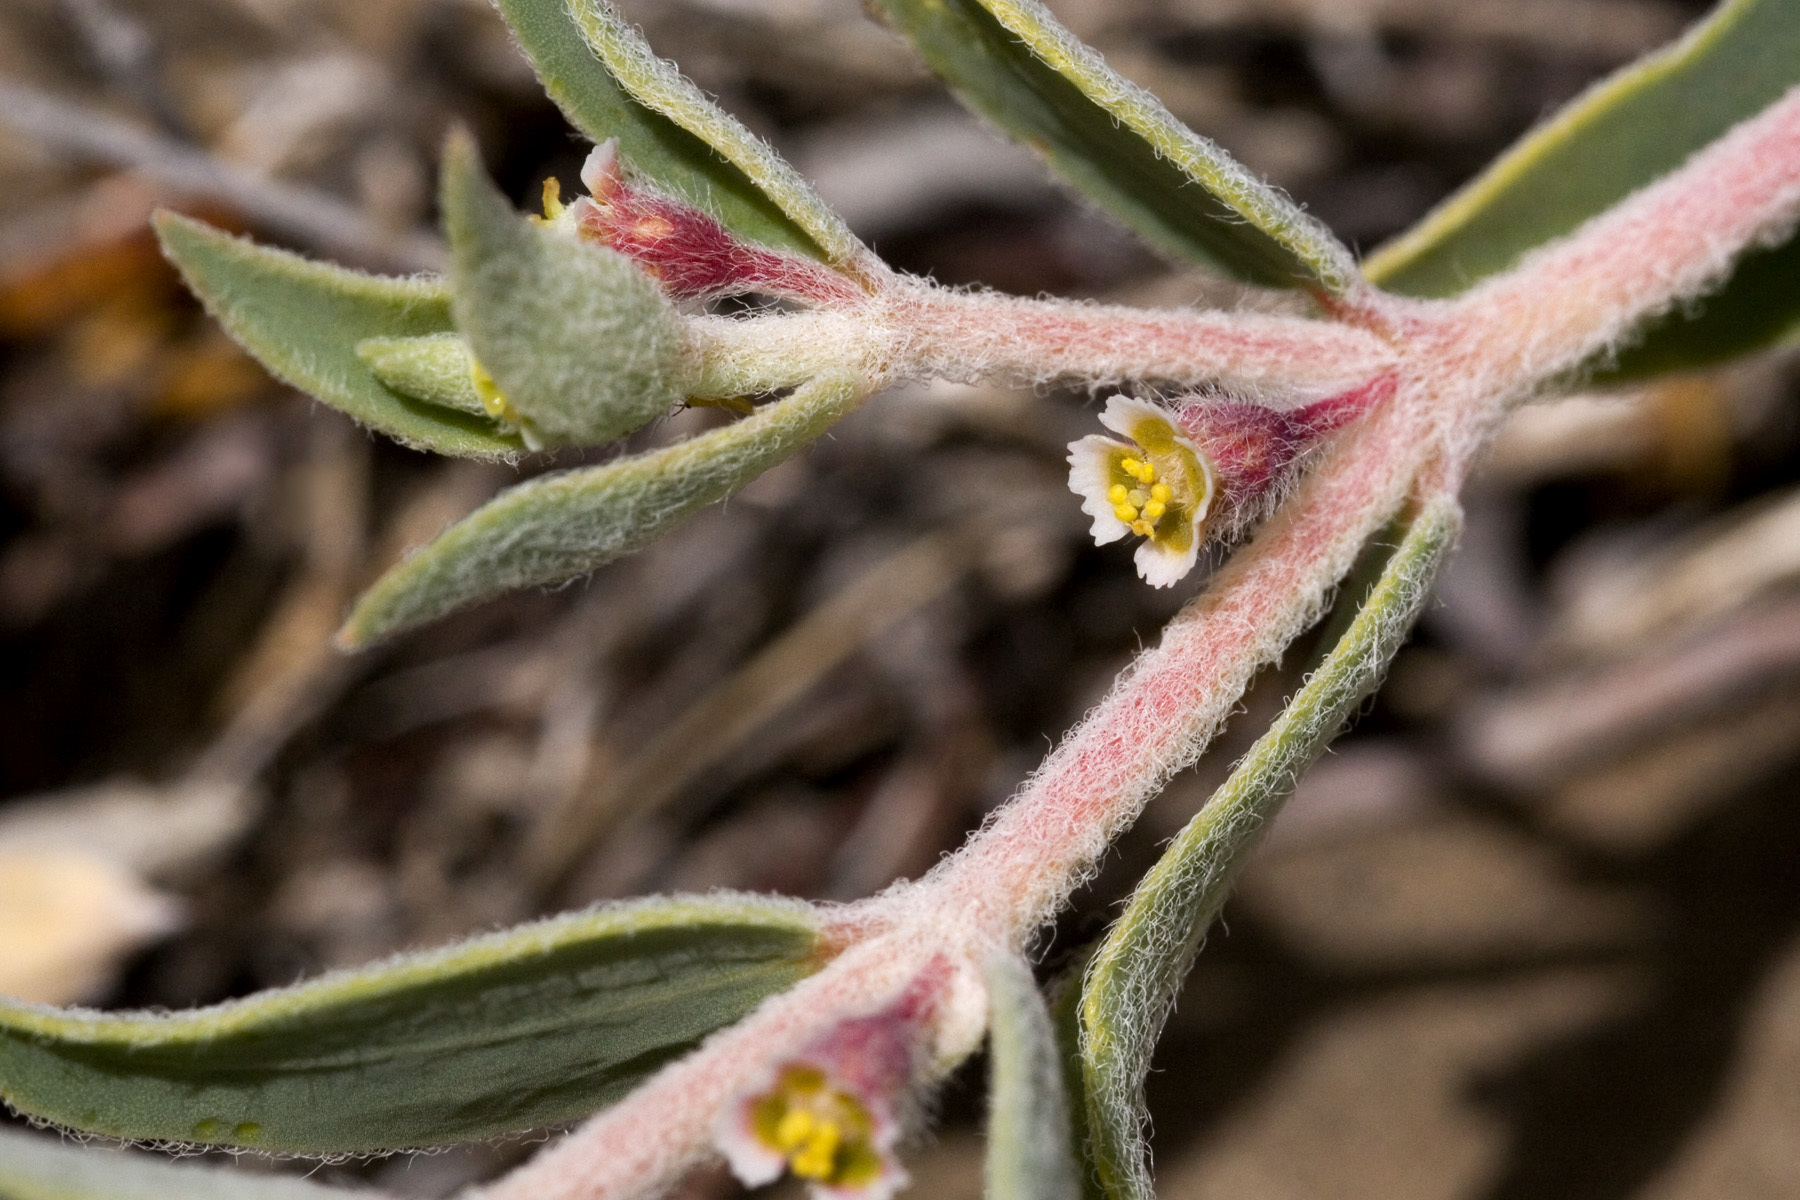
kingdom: Plantae
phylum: Tracheophyta
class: Magnoliopsida
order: Malpighiales
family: Euphorbiaceae
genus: Euphorbia
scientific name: Euphorbia acuta
